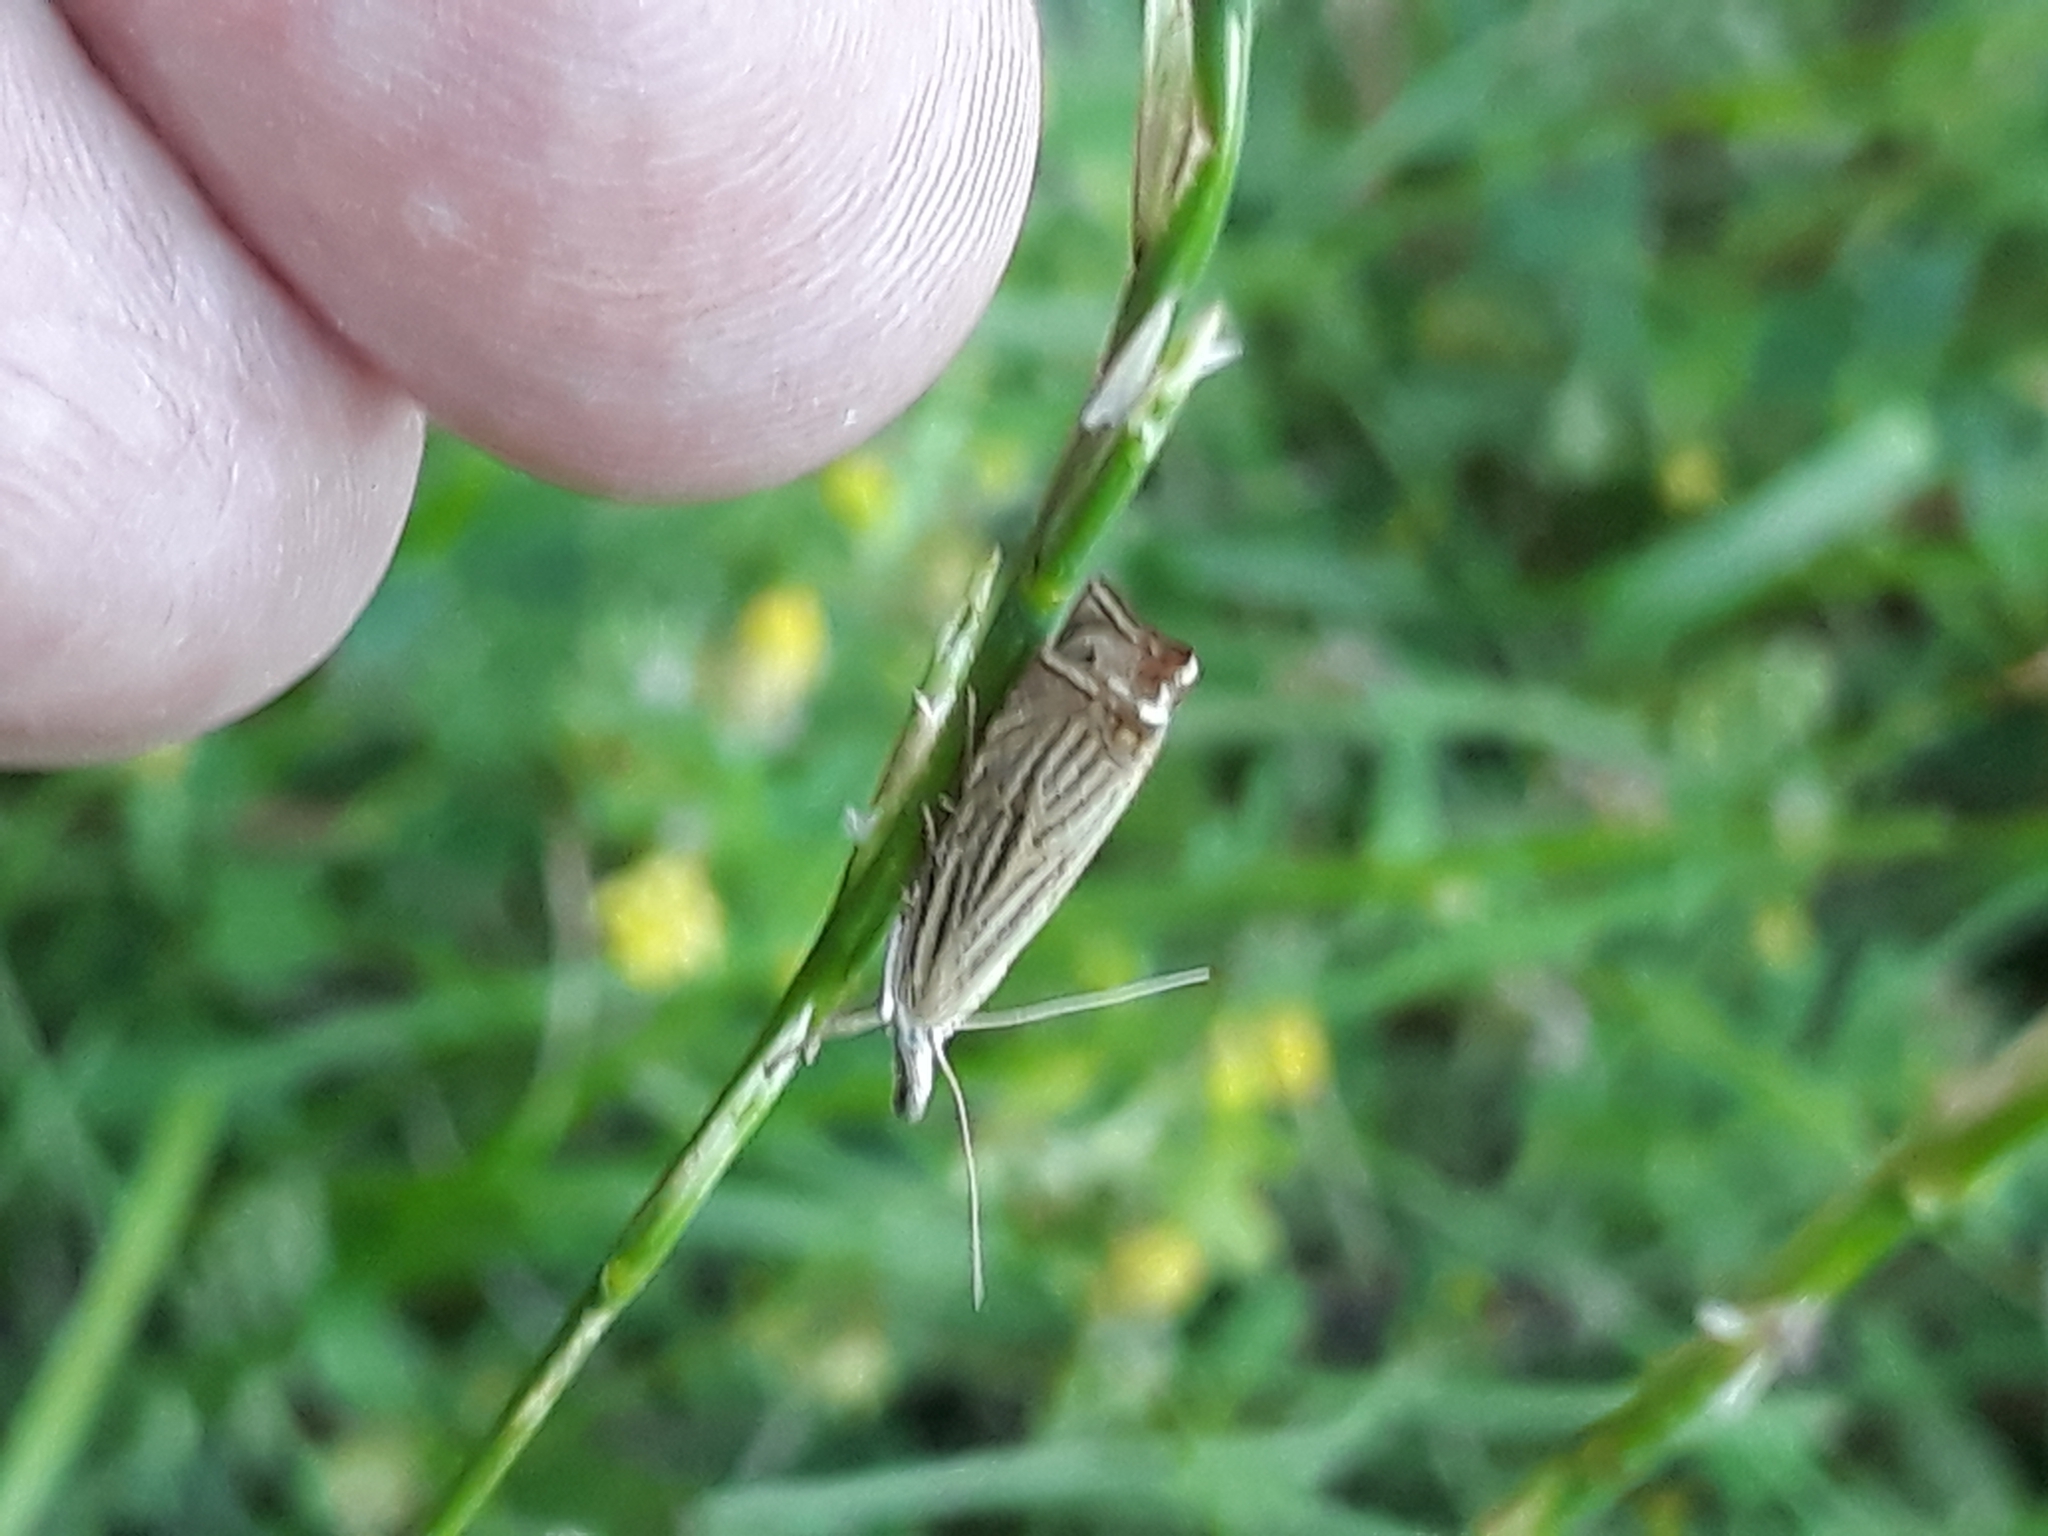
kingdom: Animalia
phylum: Arthropoda
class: Insecta
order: Lepidoptera
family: Crambidae
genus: Chrysoteuchia
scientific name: Chrysoteuchia culmella
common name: Garden grass-veneer
